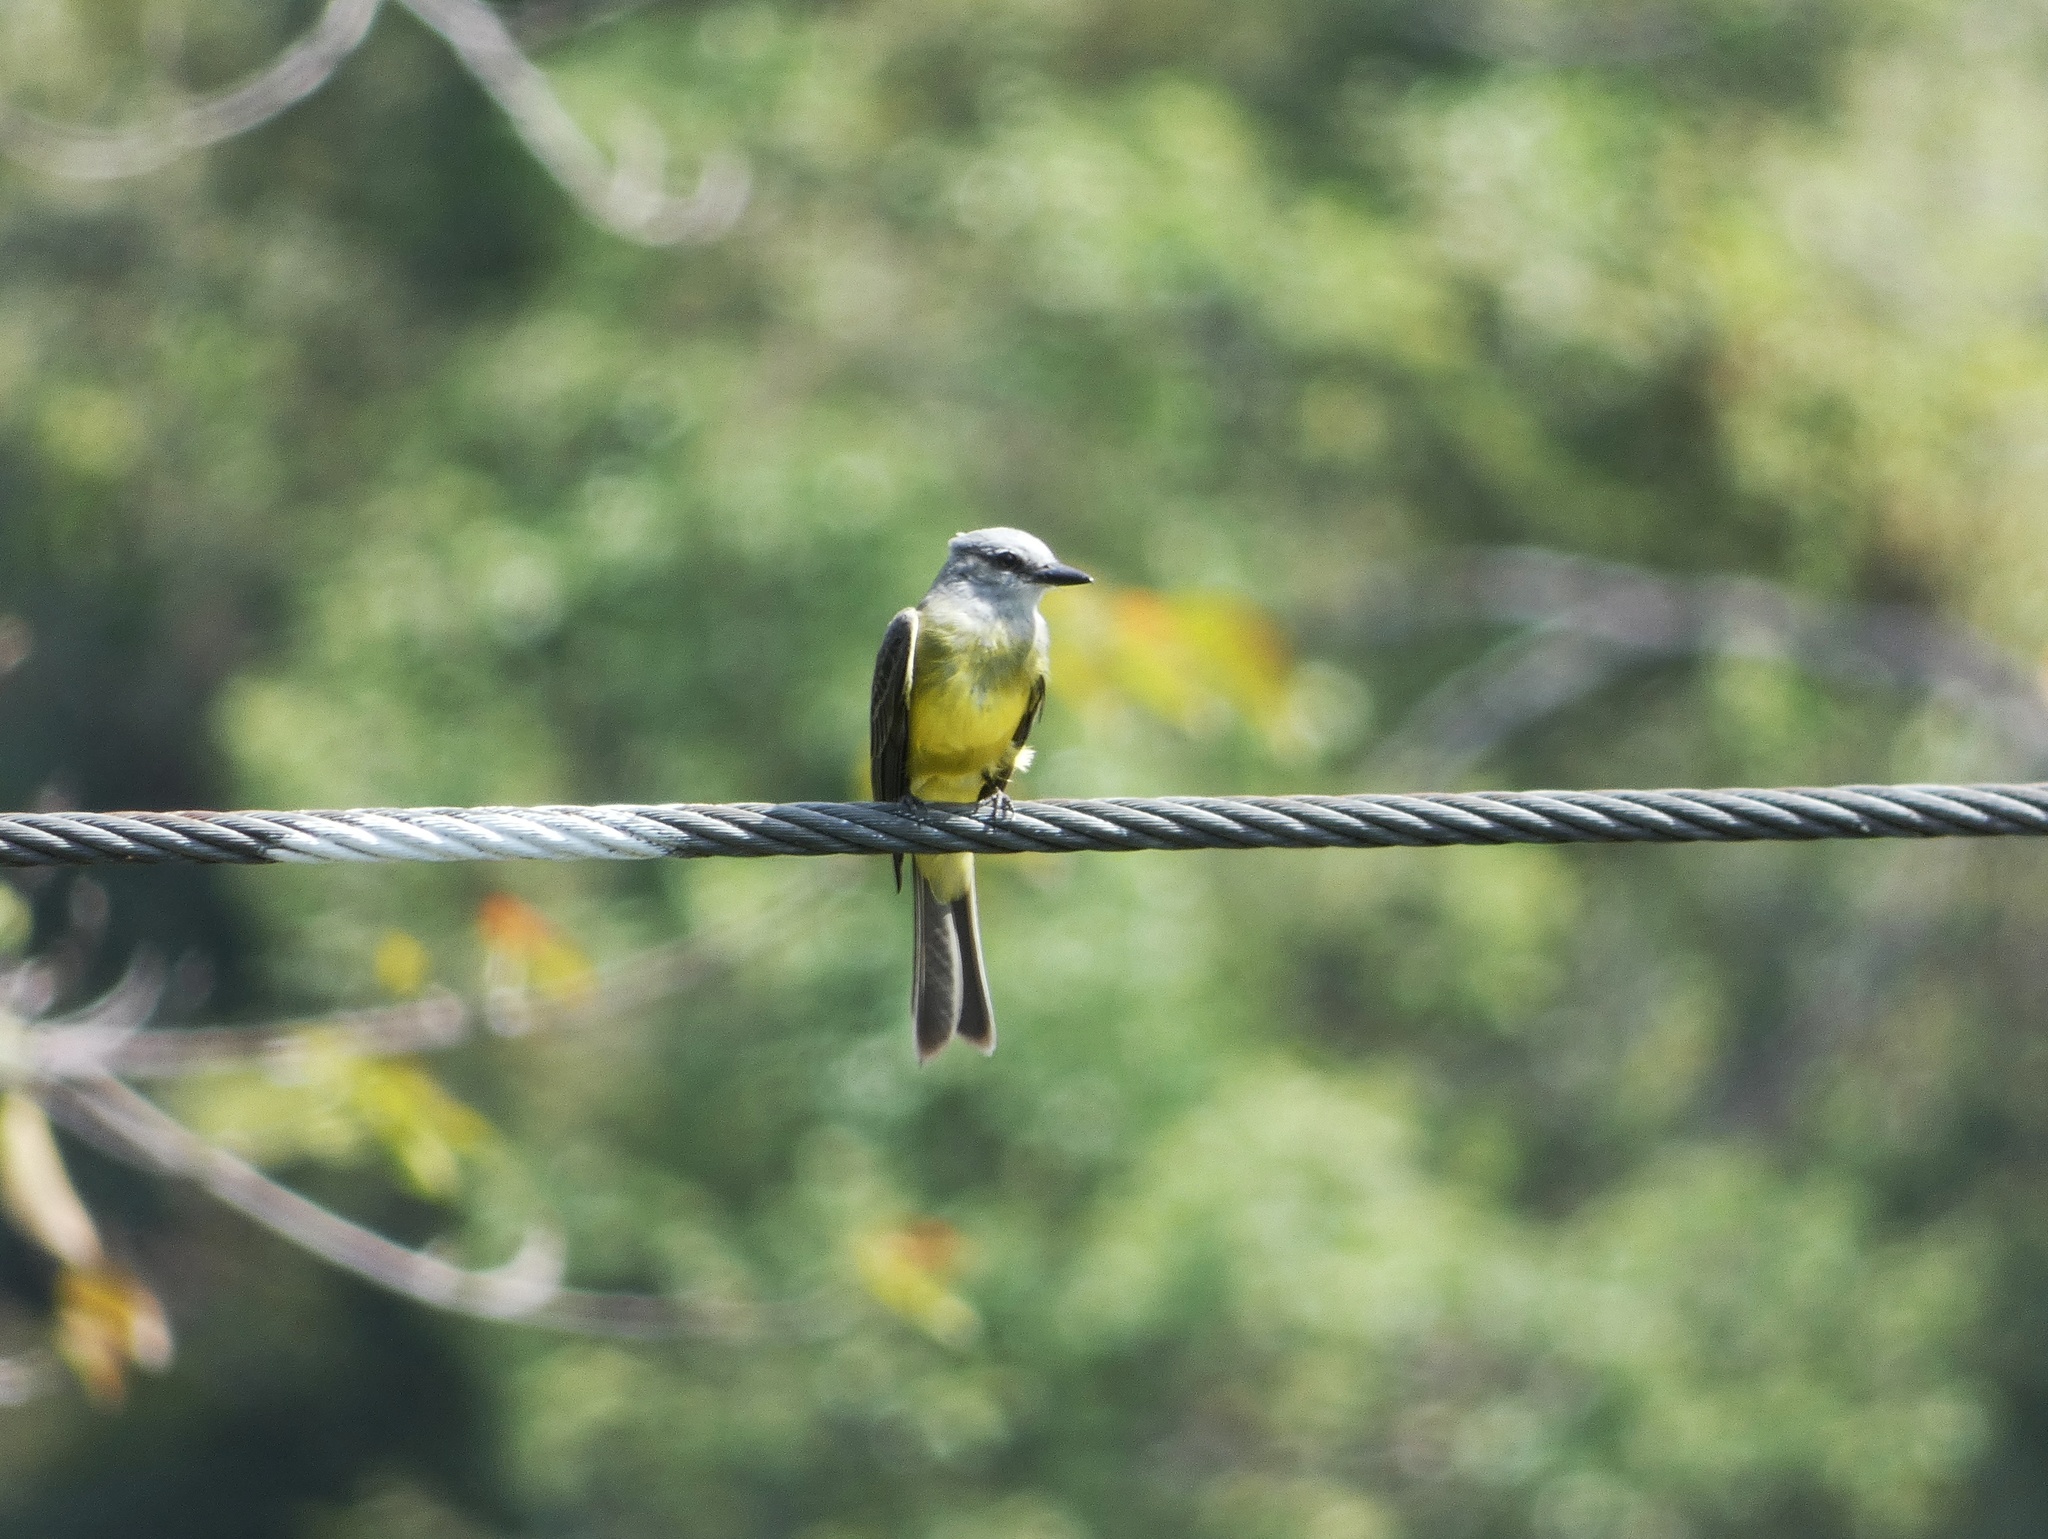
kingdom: Animalia
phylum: Chordata
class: Aves
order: Passeriformes
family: Tyrannidae
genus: Tyrannus
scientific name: Tyrannus melancholicus
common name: Tropical kingbird
